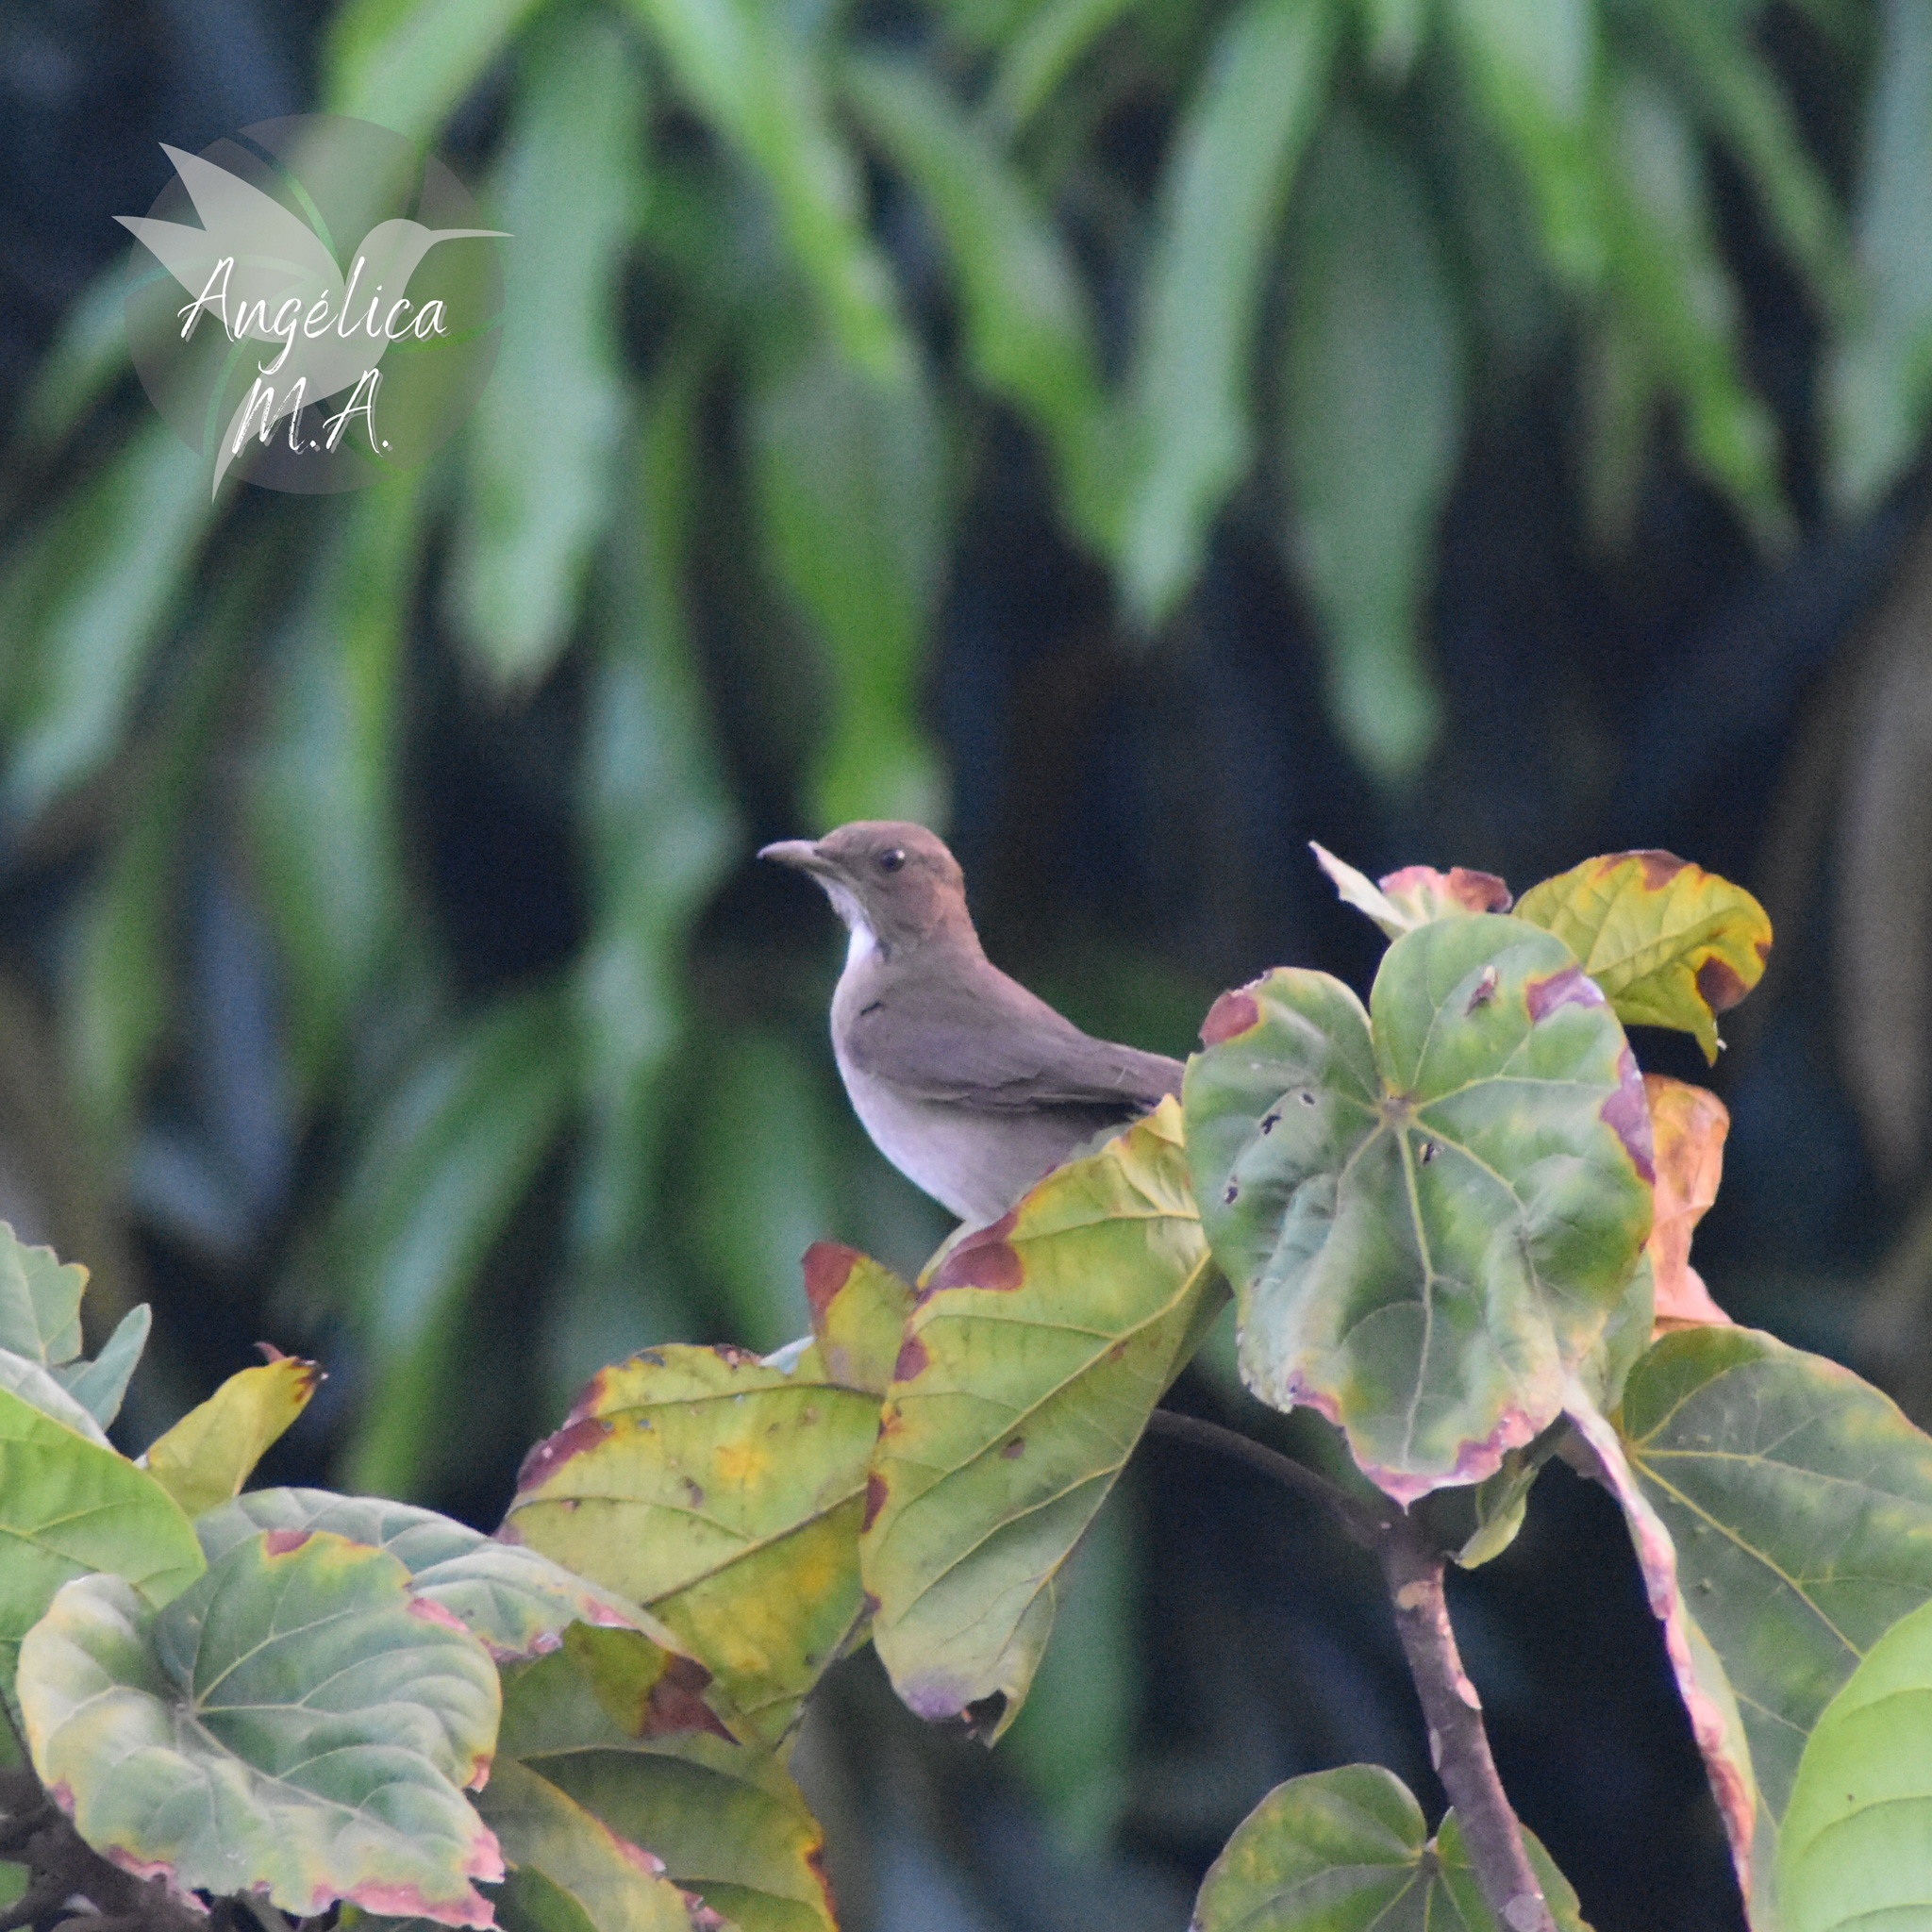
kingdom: Animalia
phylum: Chordata
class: Aves
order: Passeriformes
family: Turdidae
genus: Turdus
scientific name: Turdus ignobilis
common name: Black-billed thrush
